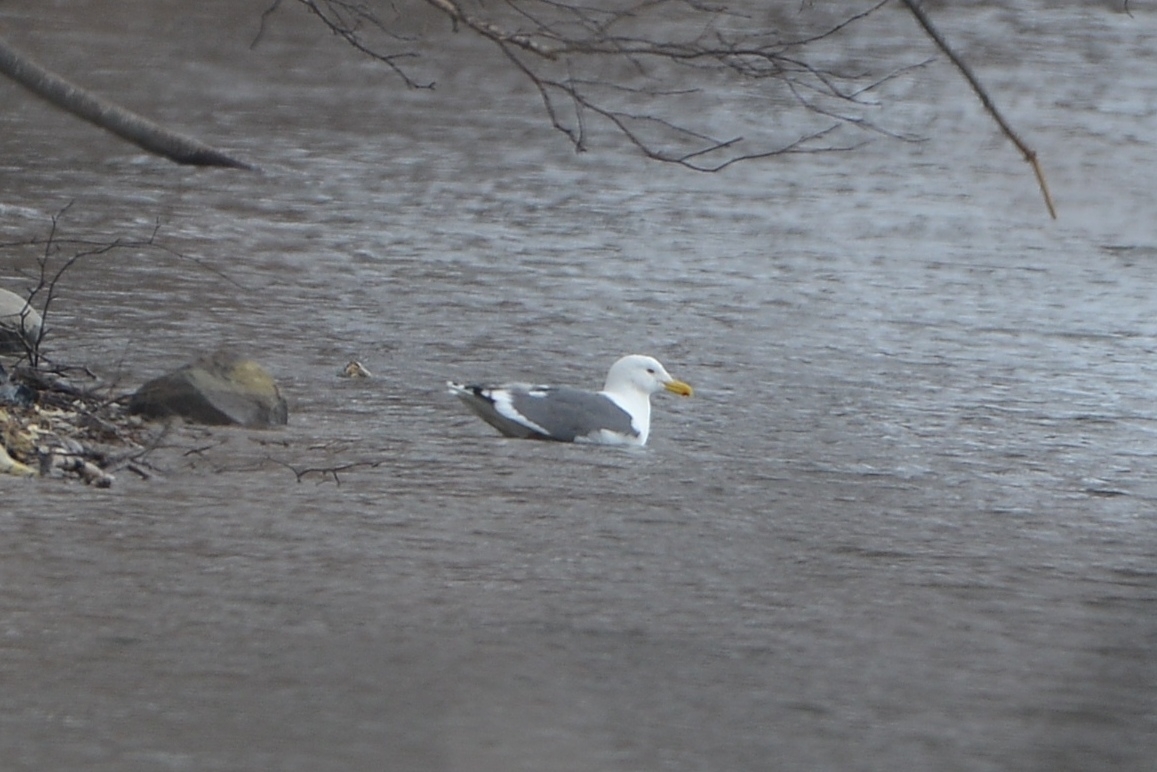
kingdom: Animalia
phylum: Chordata
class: Aves
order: Charadriiformes
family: Laridae
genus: Larus
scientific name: Larus schistisagus
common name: Slaty-backed gull
